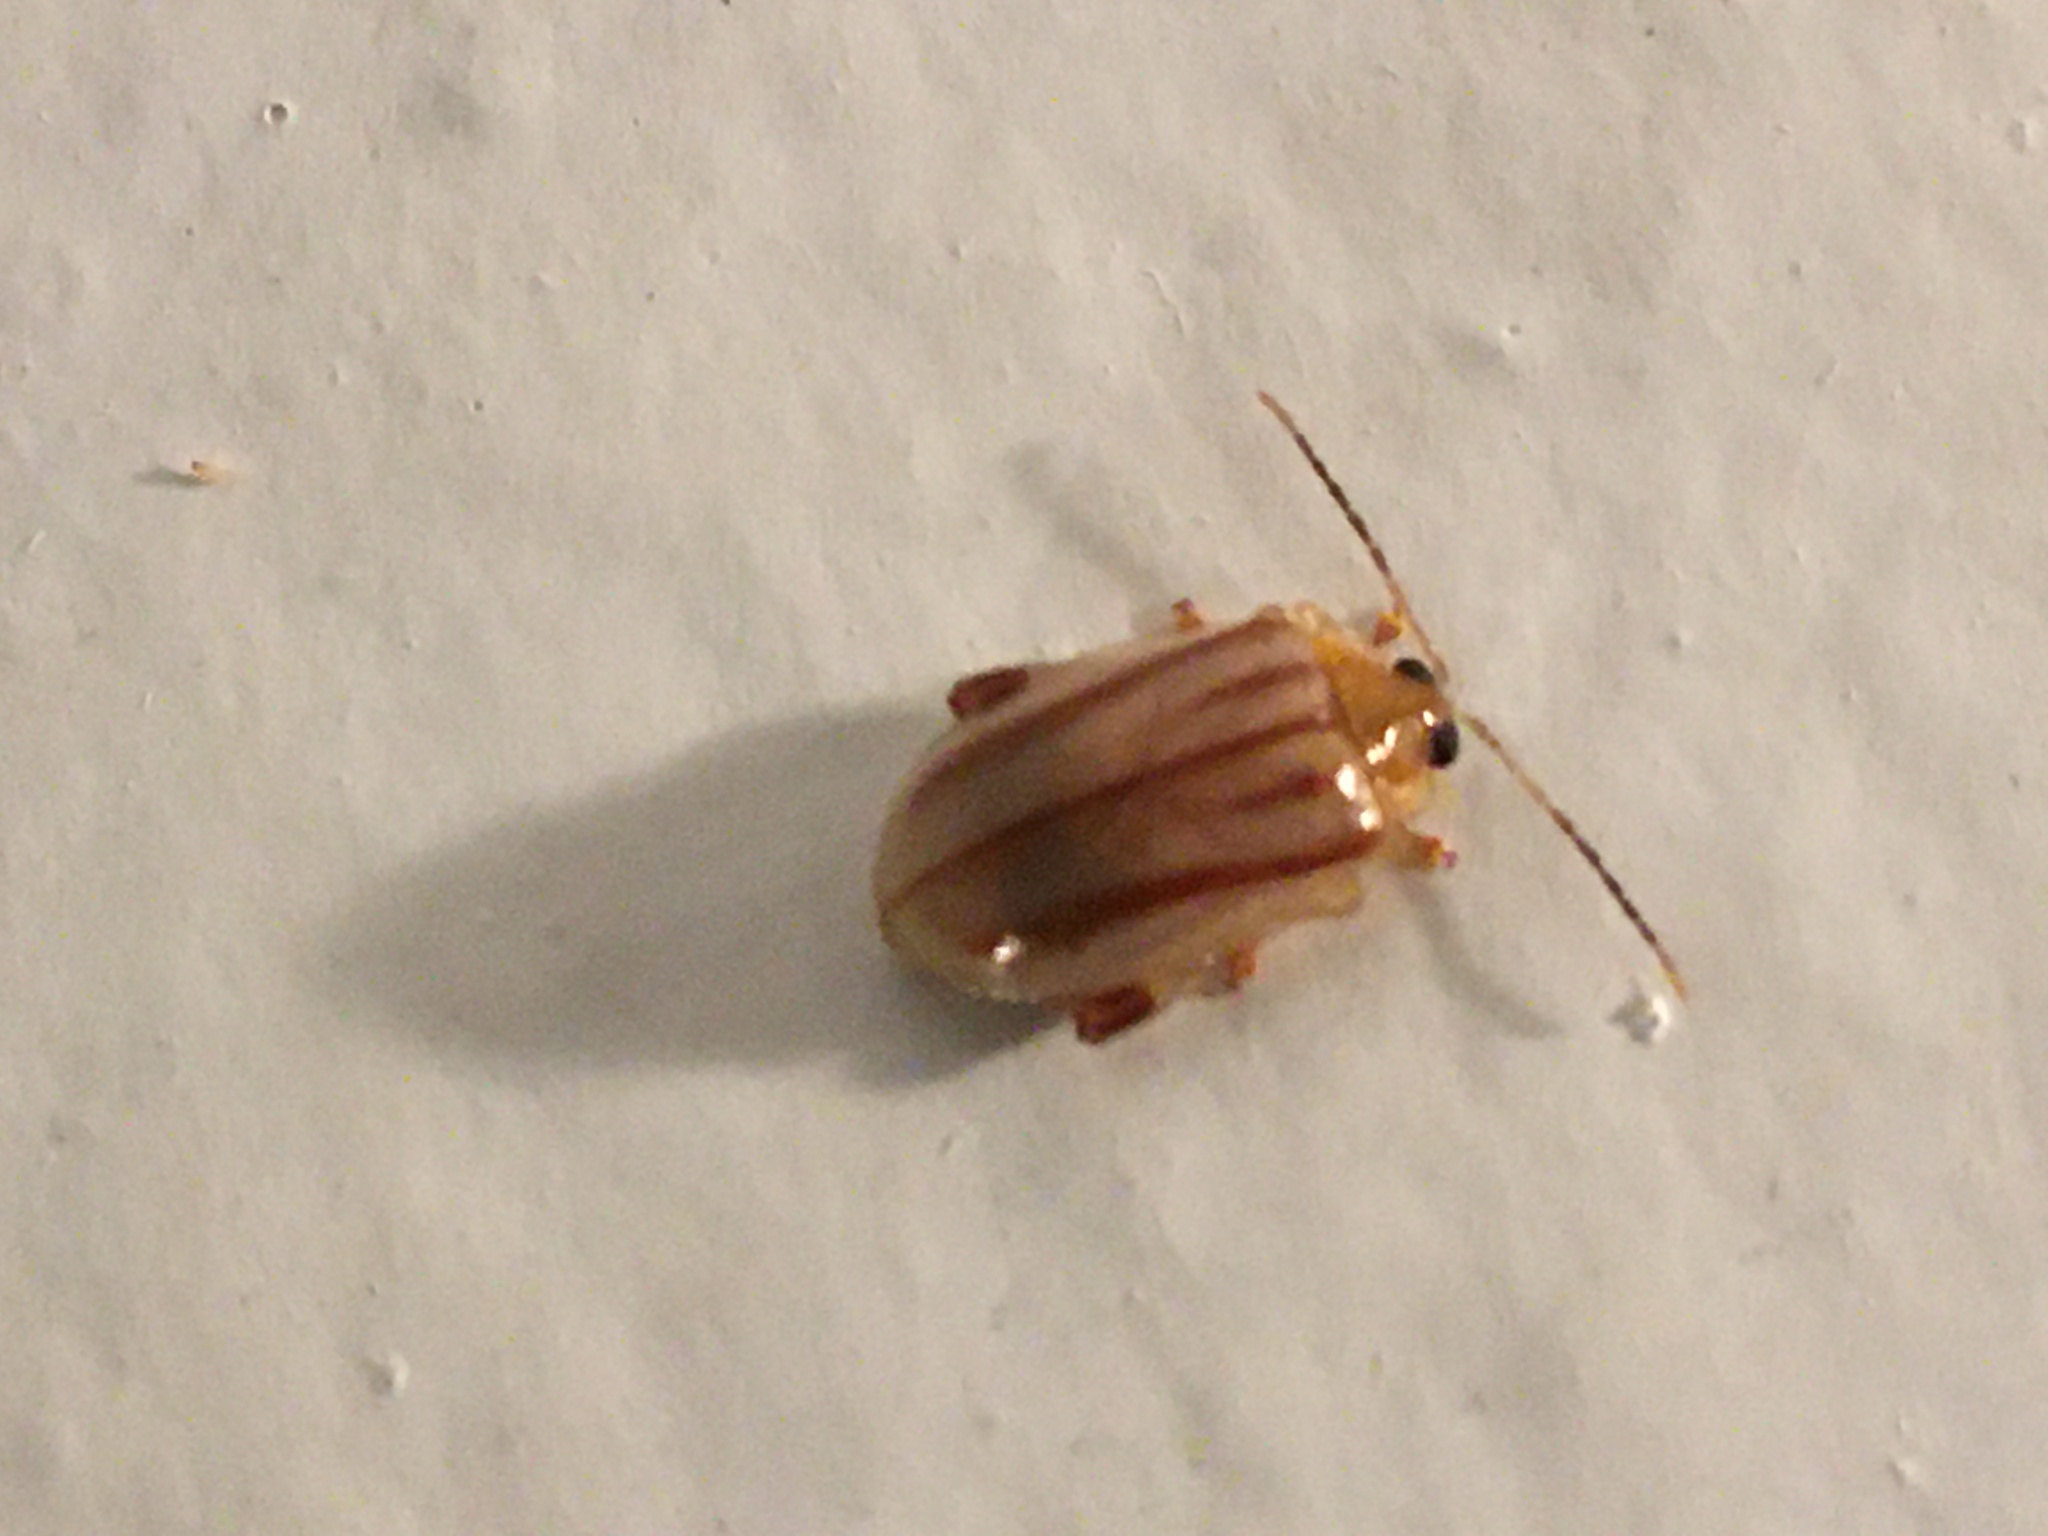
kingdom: Animalia
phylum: Arthropoda
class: Insecta
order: Coleoptera
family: Chrysomelidae
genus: Walterianella
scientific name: Walterianella
